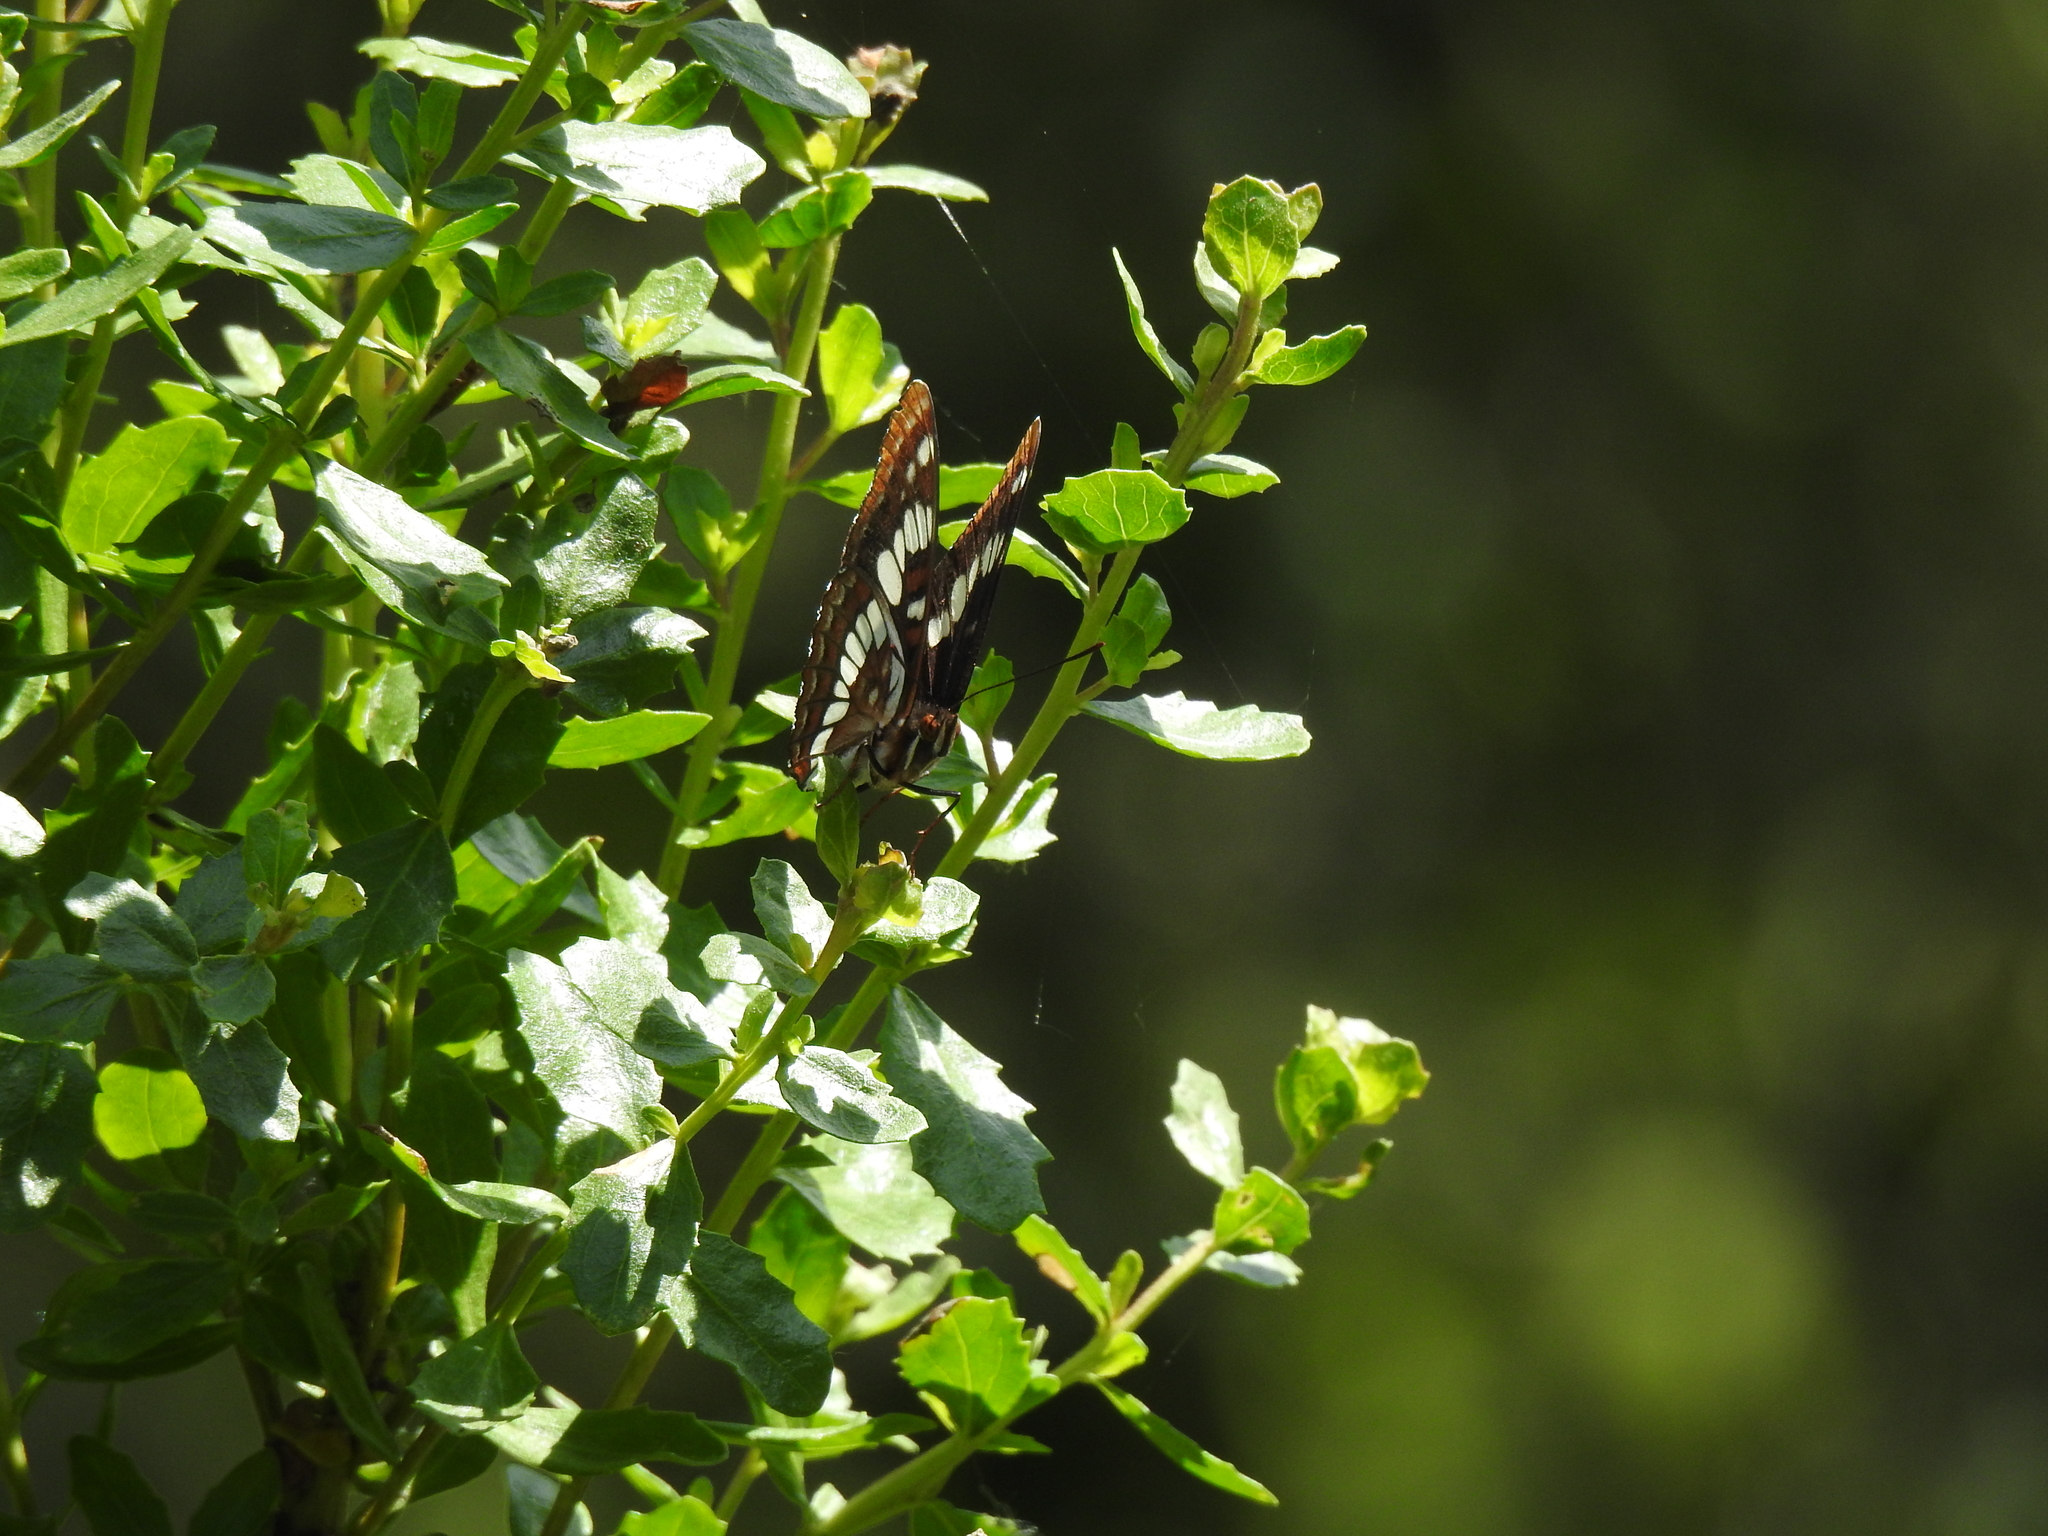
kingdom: Animalia
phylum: Arthropoda
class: Insecta
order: Lepidoptera
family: Nymphalidae
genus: Limenitis
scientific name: Limenitis lorquini
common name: Lorquin's admiral
